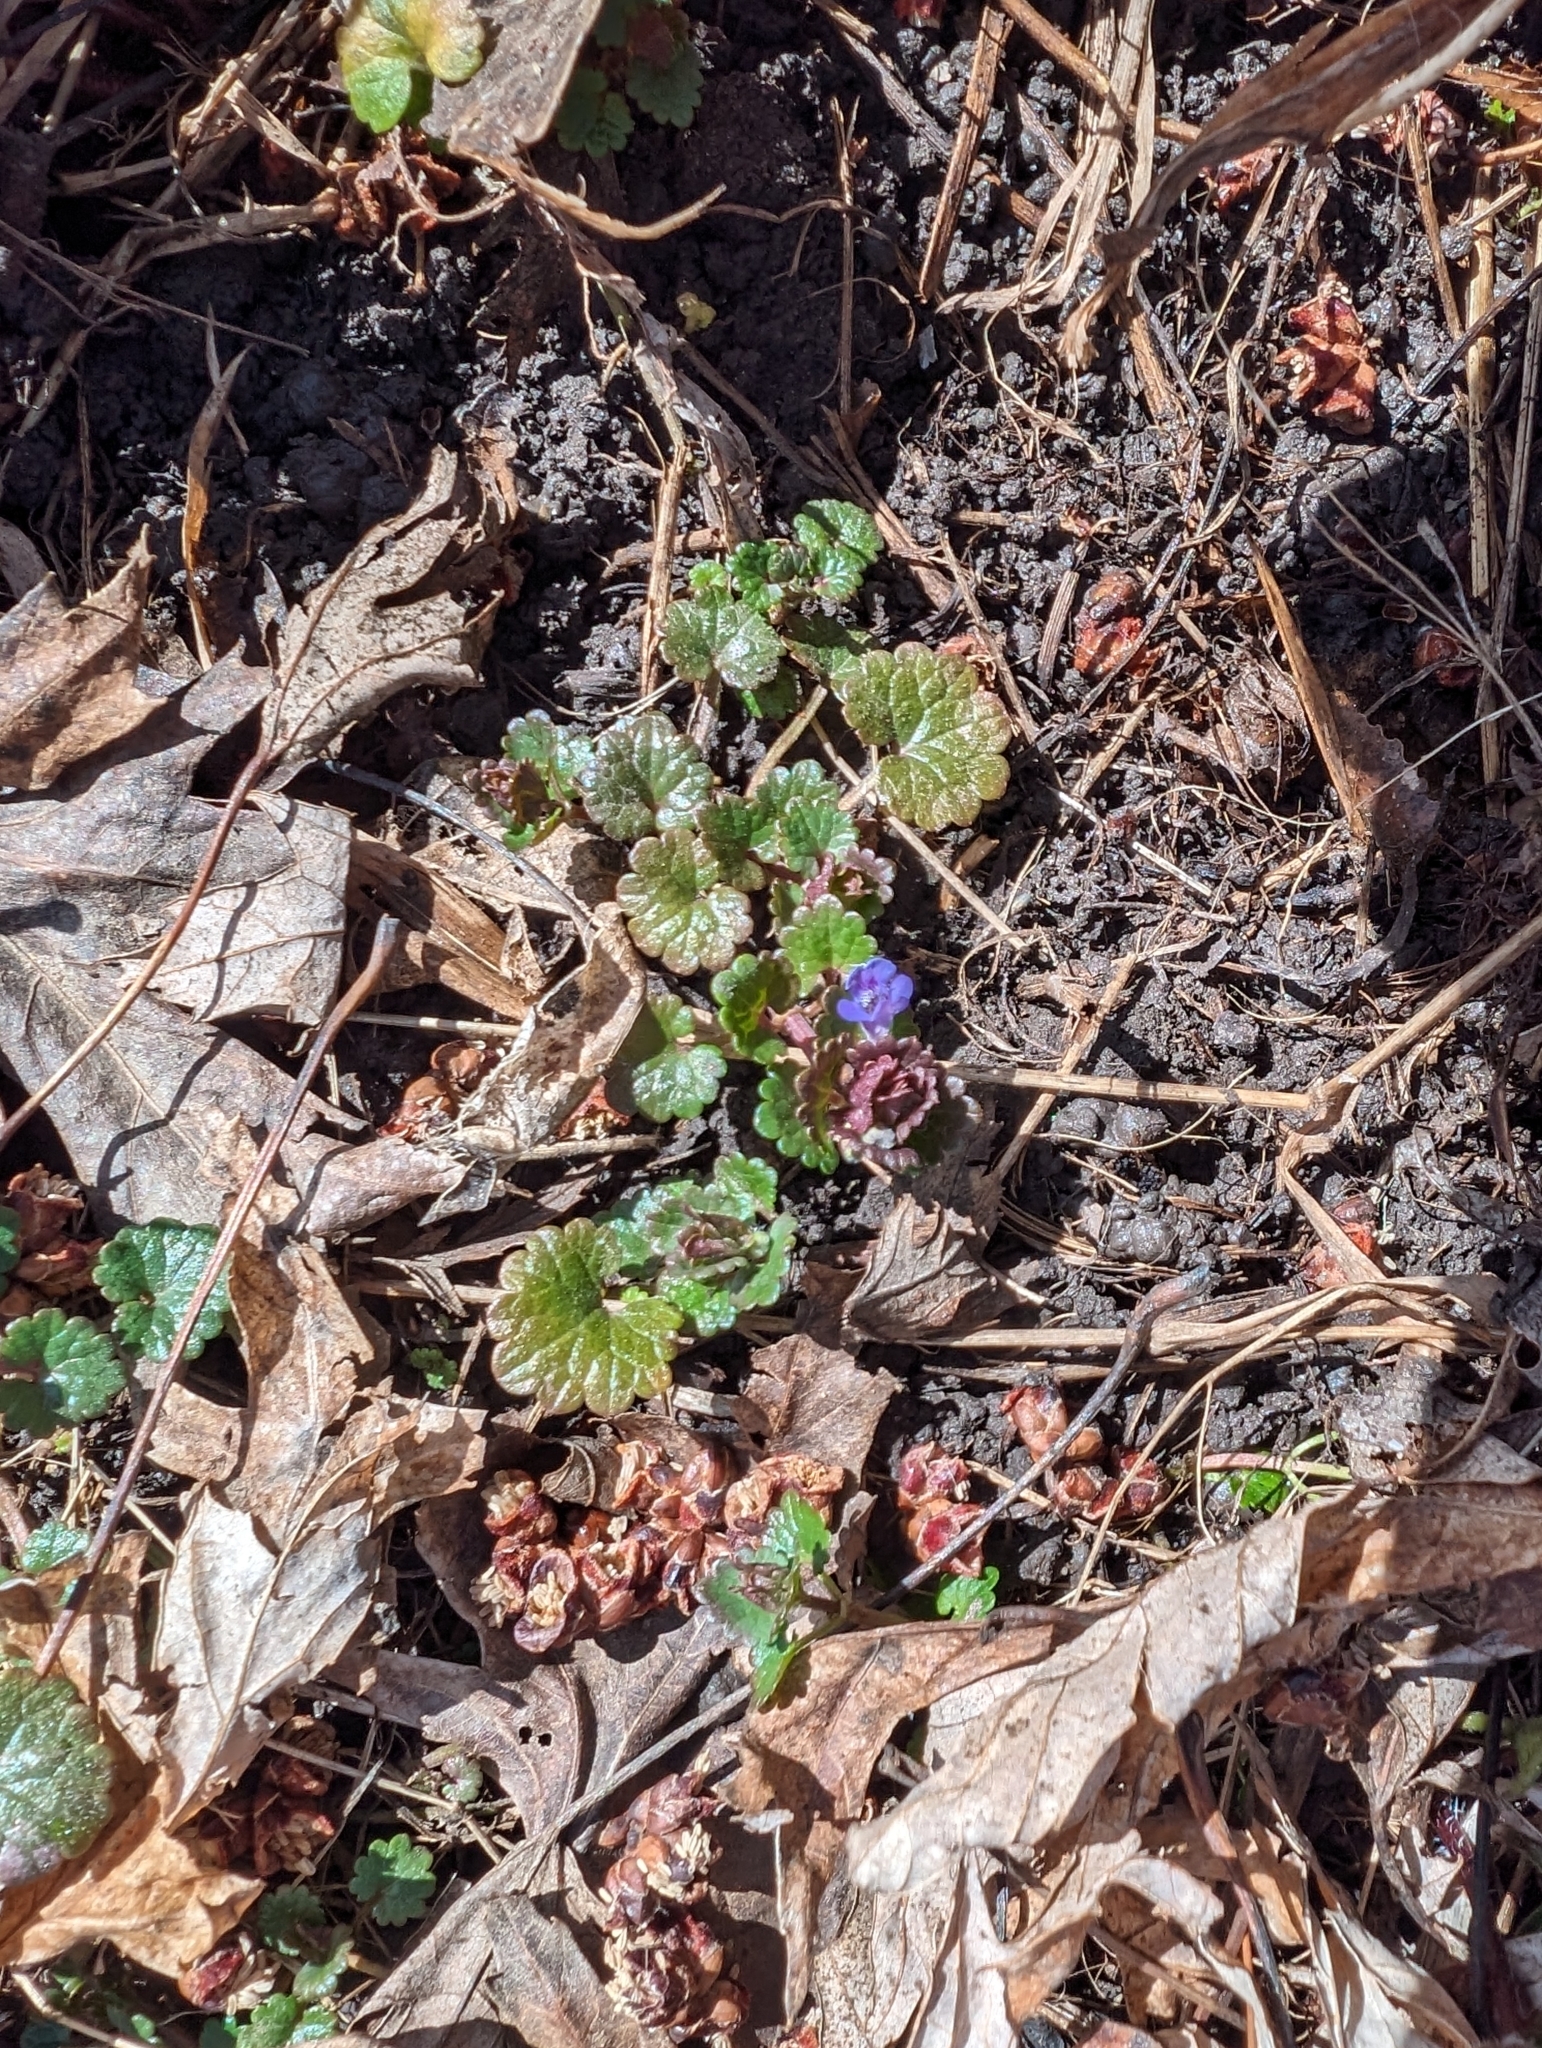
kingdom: Plantae
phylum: Tracheophyta
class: Magnoliopsida
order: Lamiales
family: Lamiaceae
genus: Glechoma
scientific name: Glechoma hederacea
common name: Ground ivy
